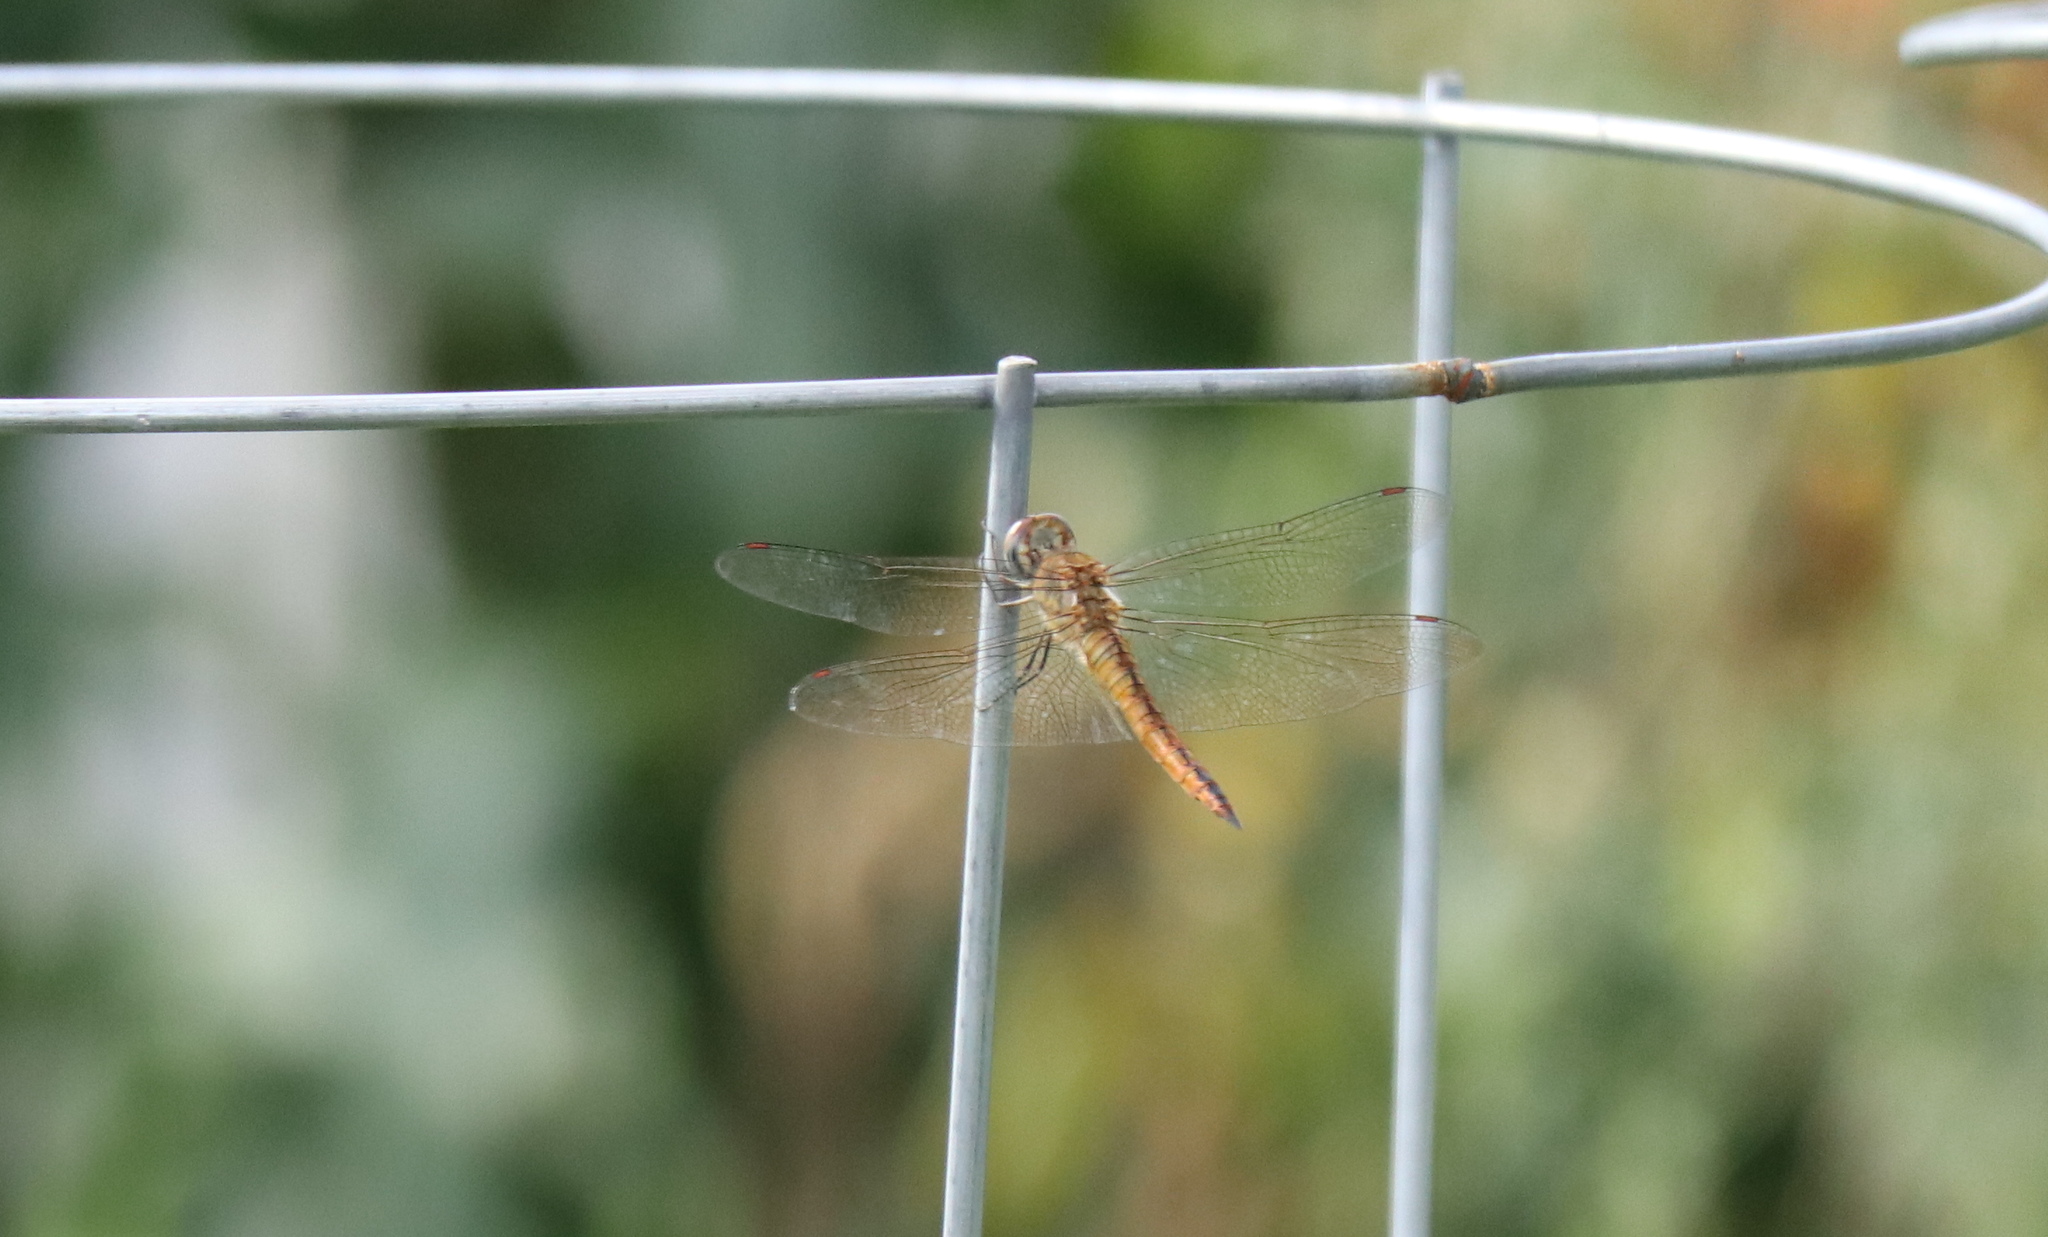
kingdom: Animalia
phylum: Arthropoda
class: Insecta
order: Odonata
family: Libellulidae
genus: Pantala
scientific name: Pantala flavescens
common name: Wandering glider
